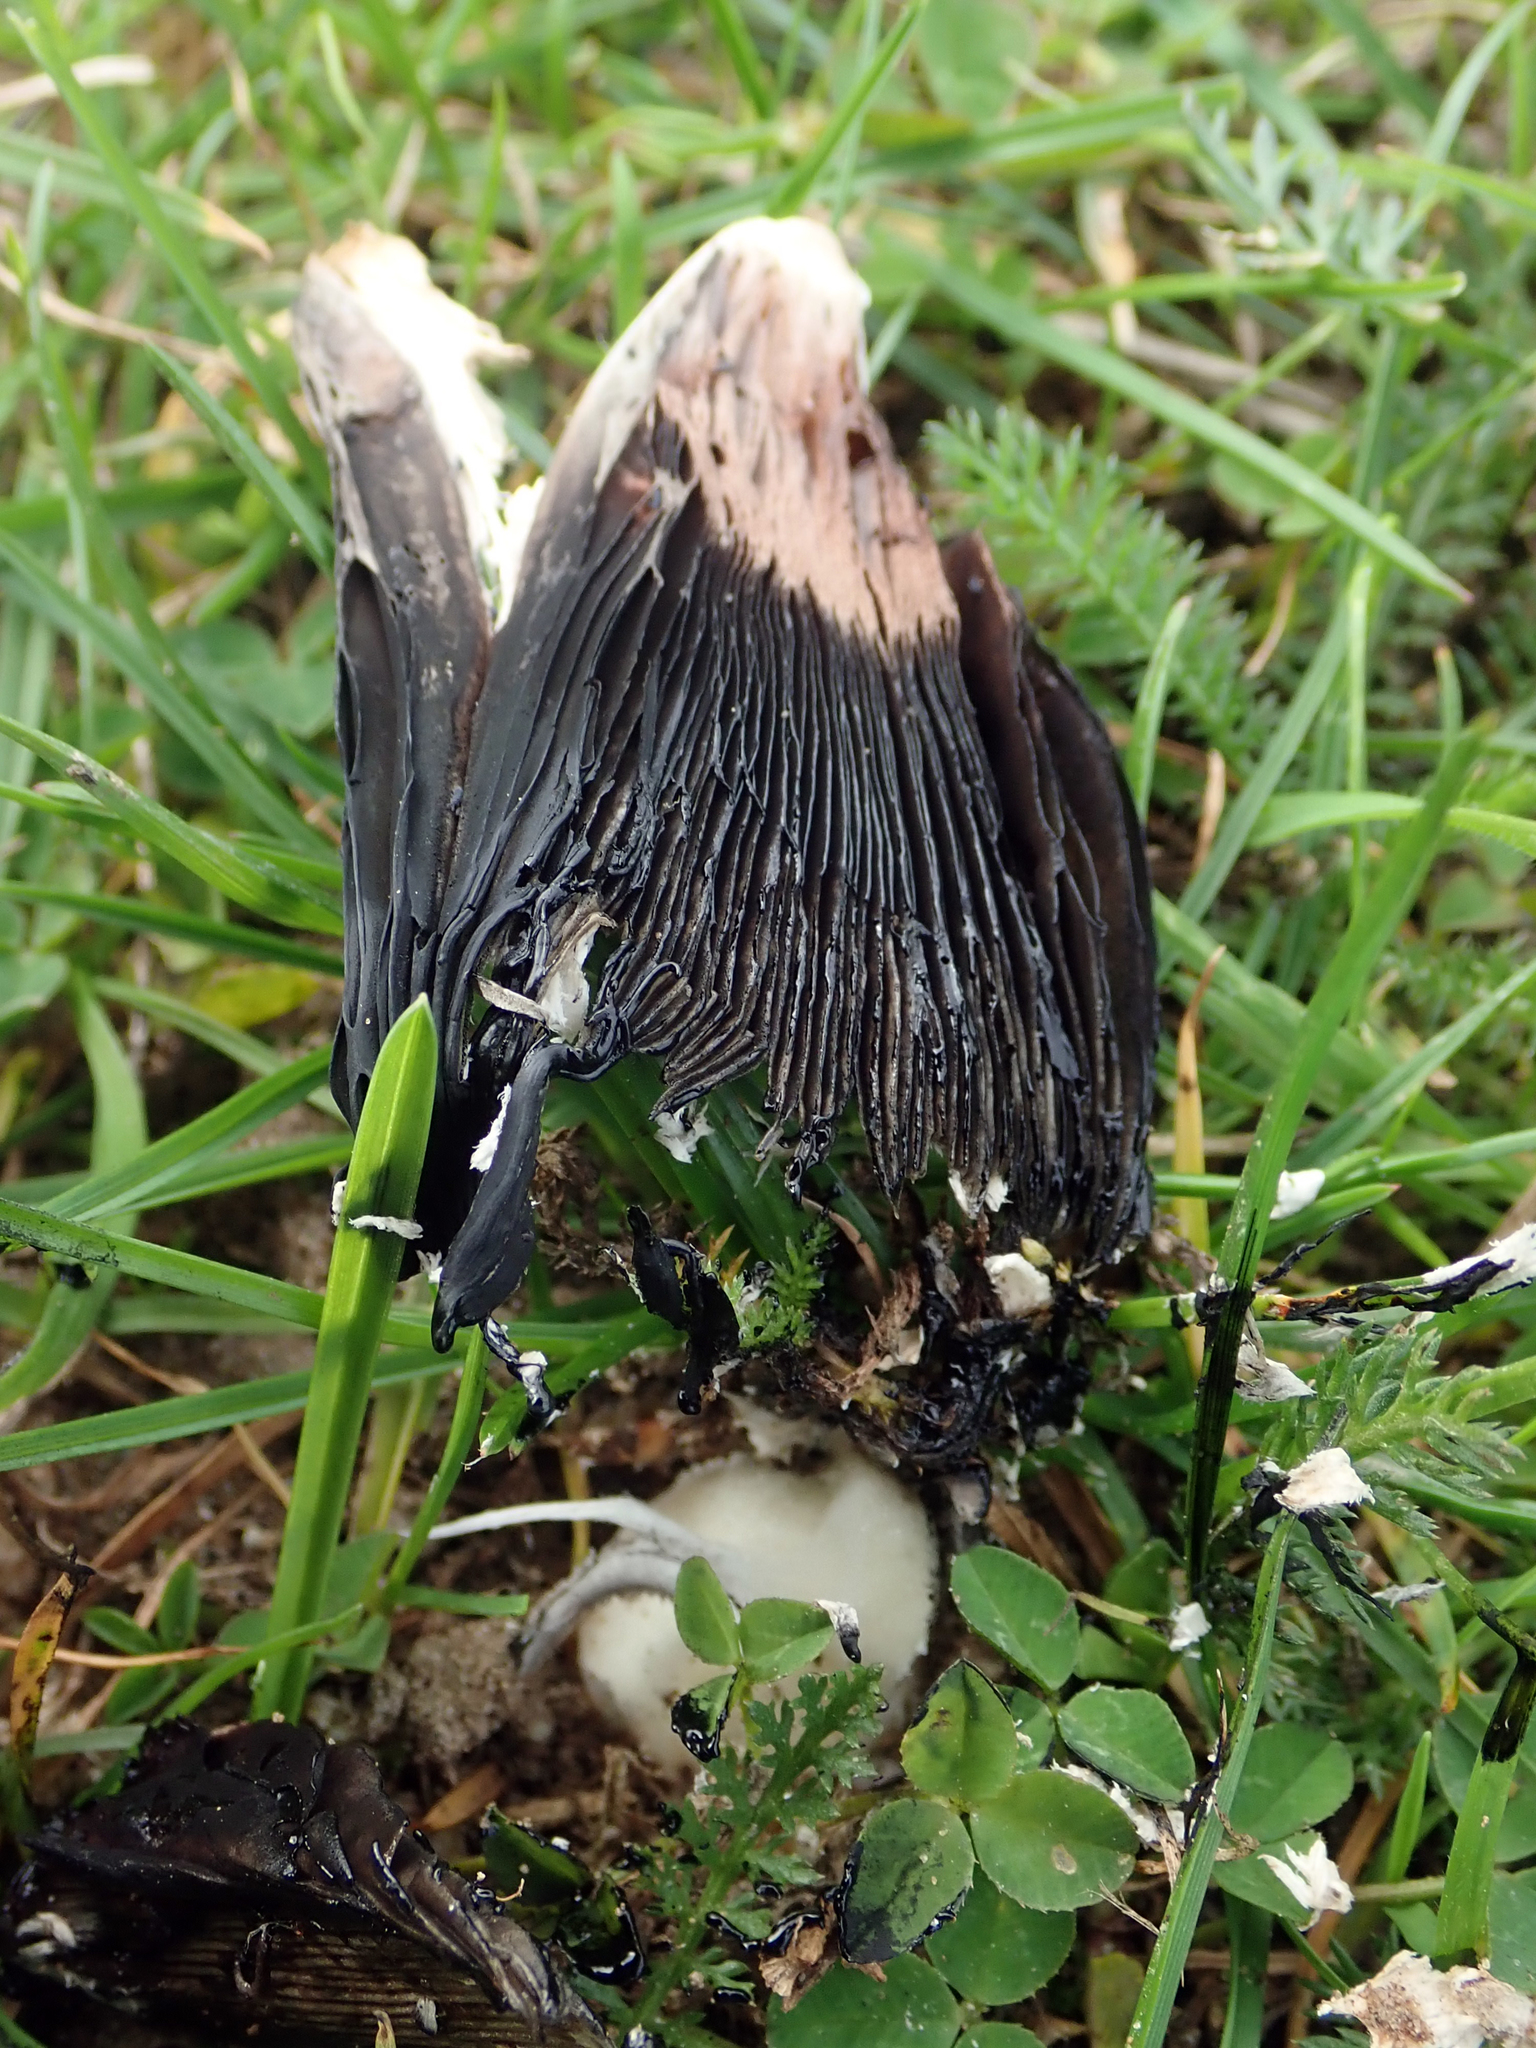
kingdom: Fungi
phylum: Basidiomycota
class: Agaricomycetes
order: Agaricales
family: Agaricaceae
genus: Coprinus
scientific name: Coprinus comatus
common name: Lawyer's wig
